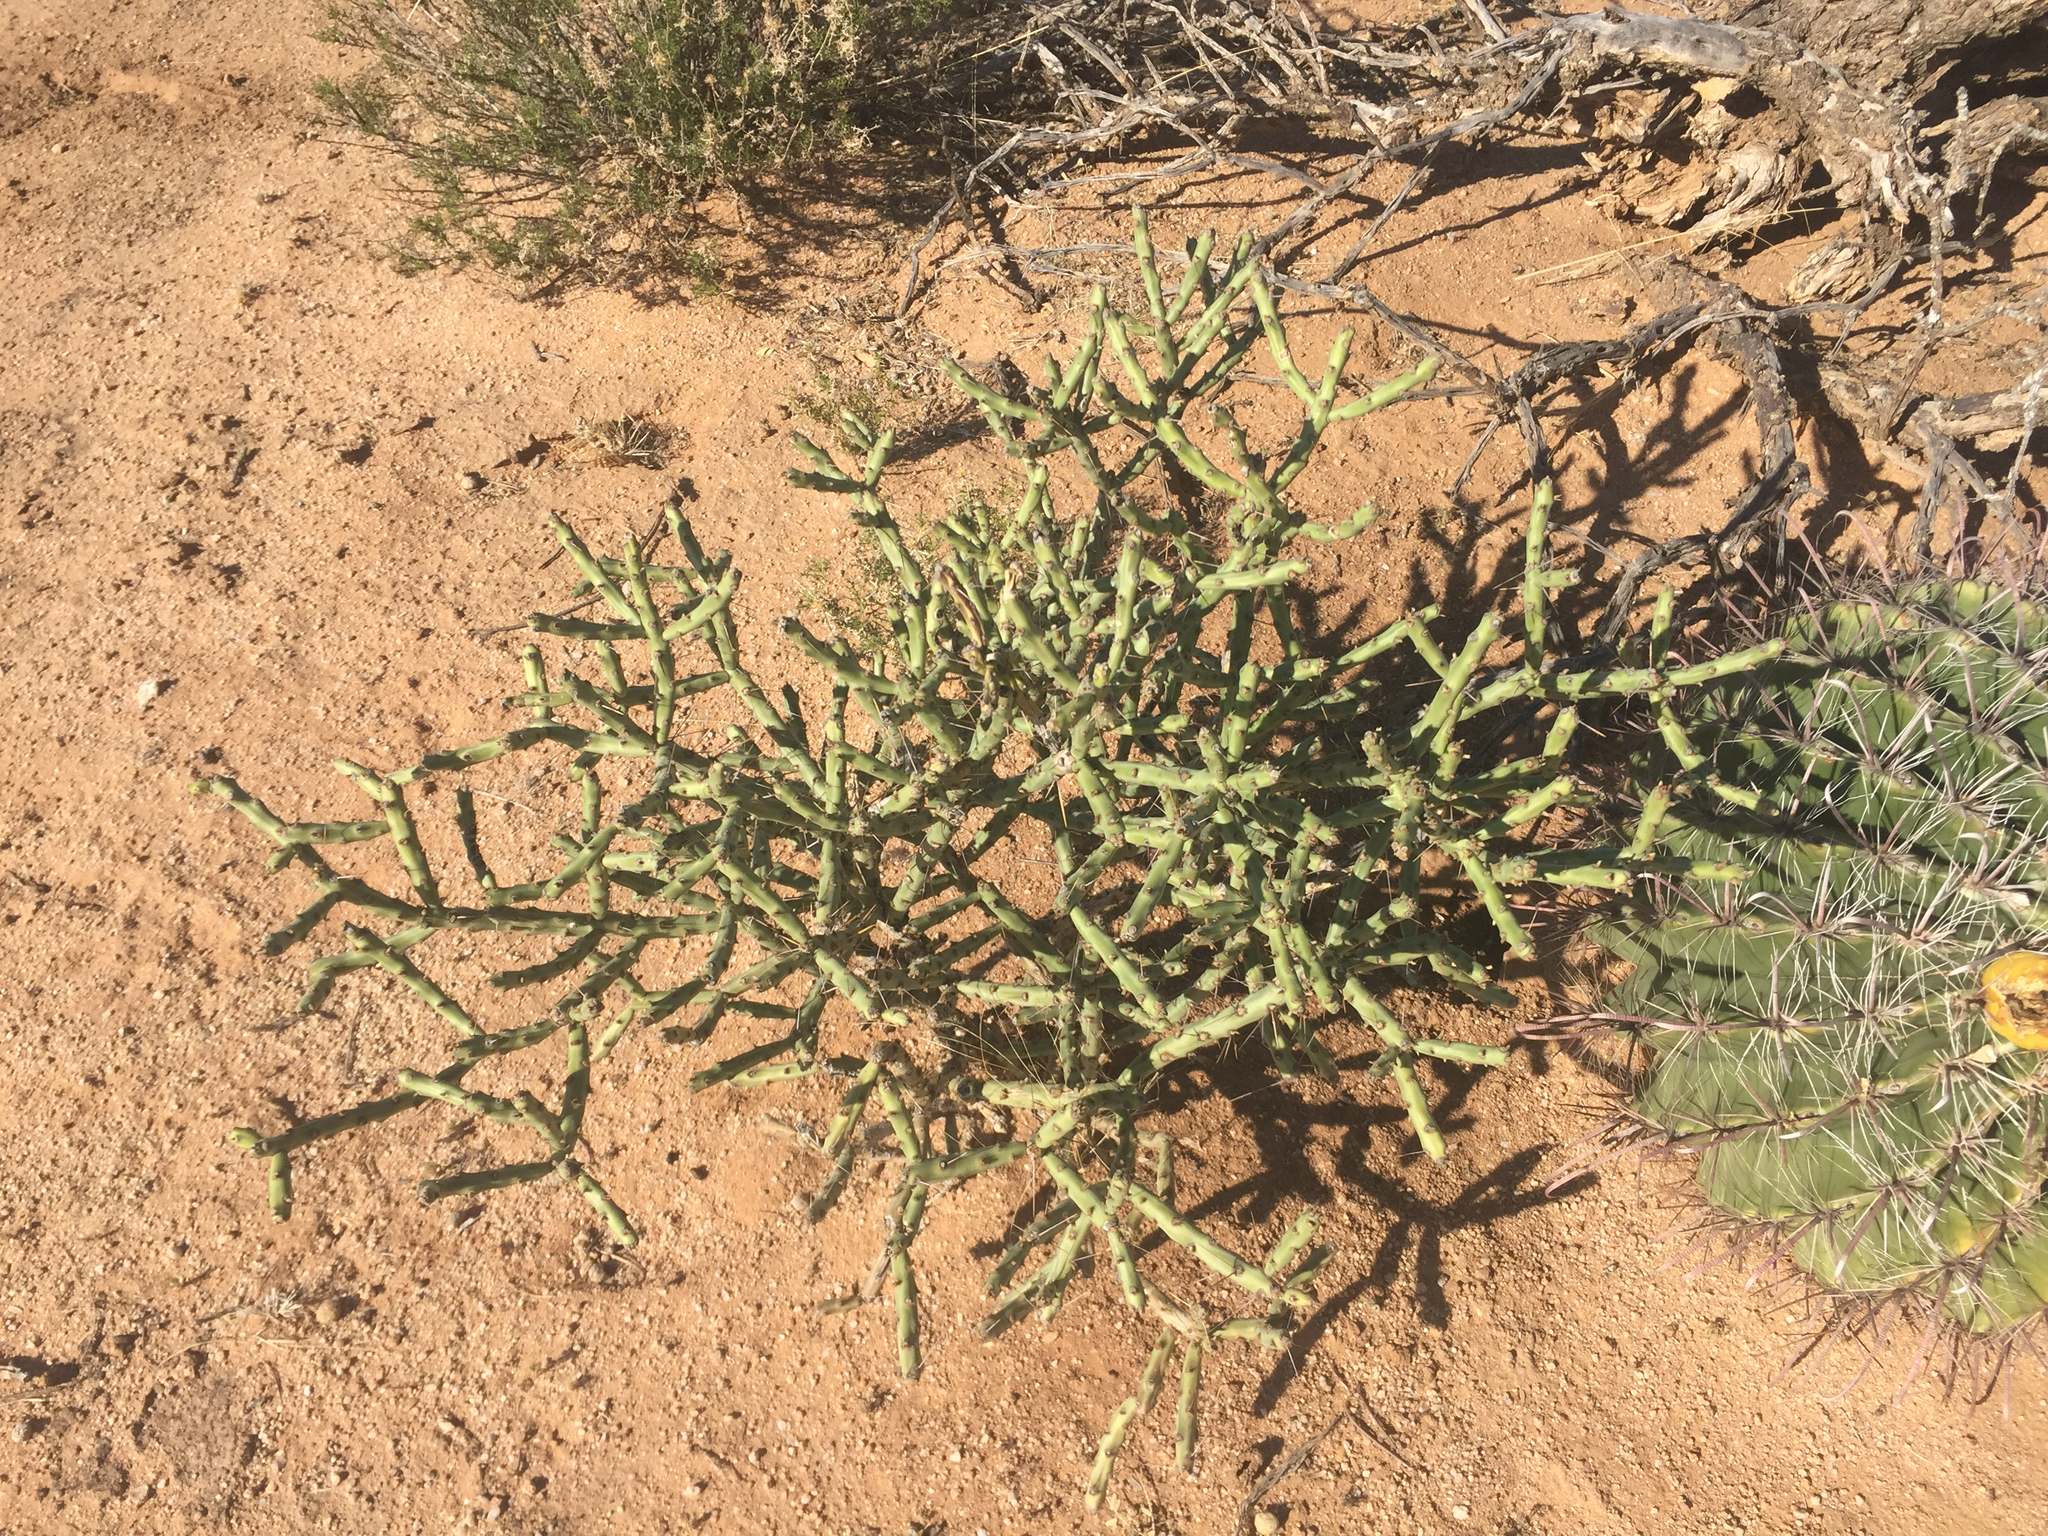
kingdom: Plantae
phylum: Tracheophyta
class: Magnoliopsida
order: Caryophyllales
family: Cactaceae
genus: Cylindropuntia
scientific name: Cylindropuntia arbuscula
